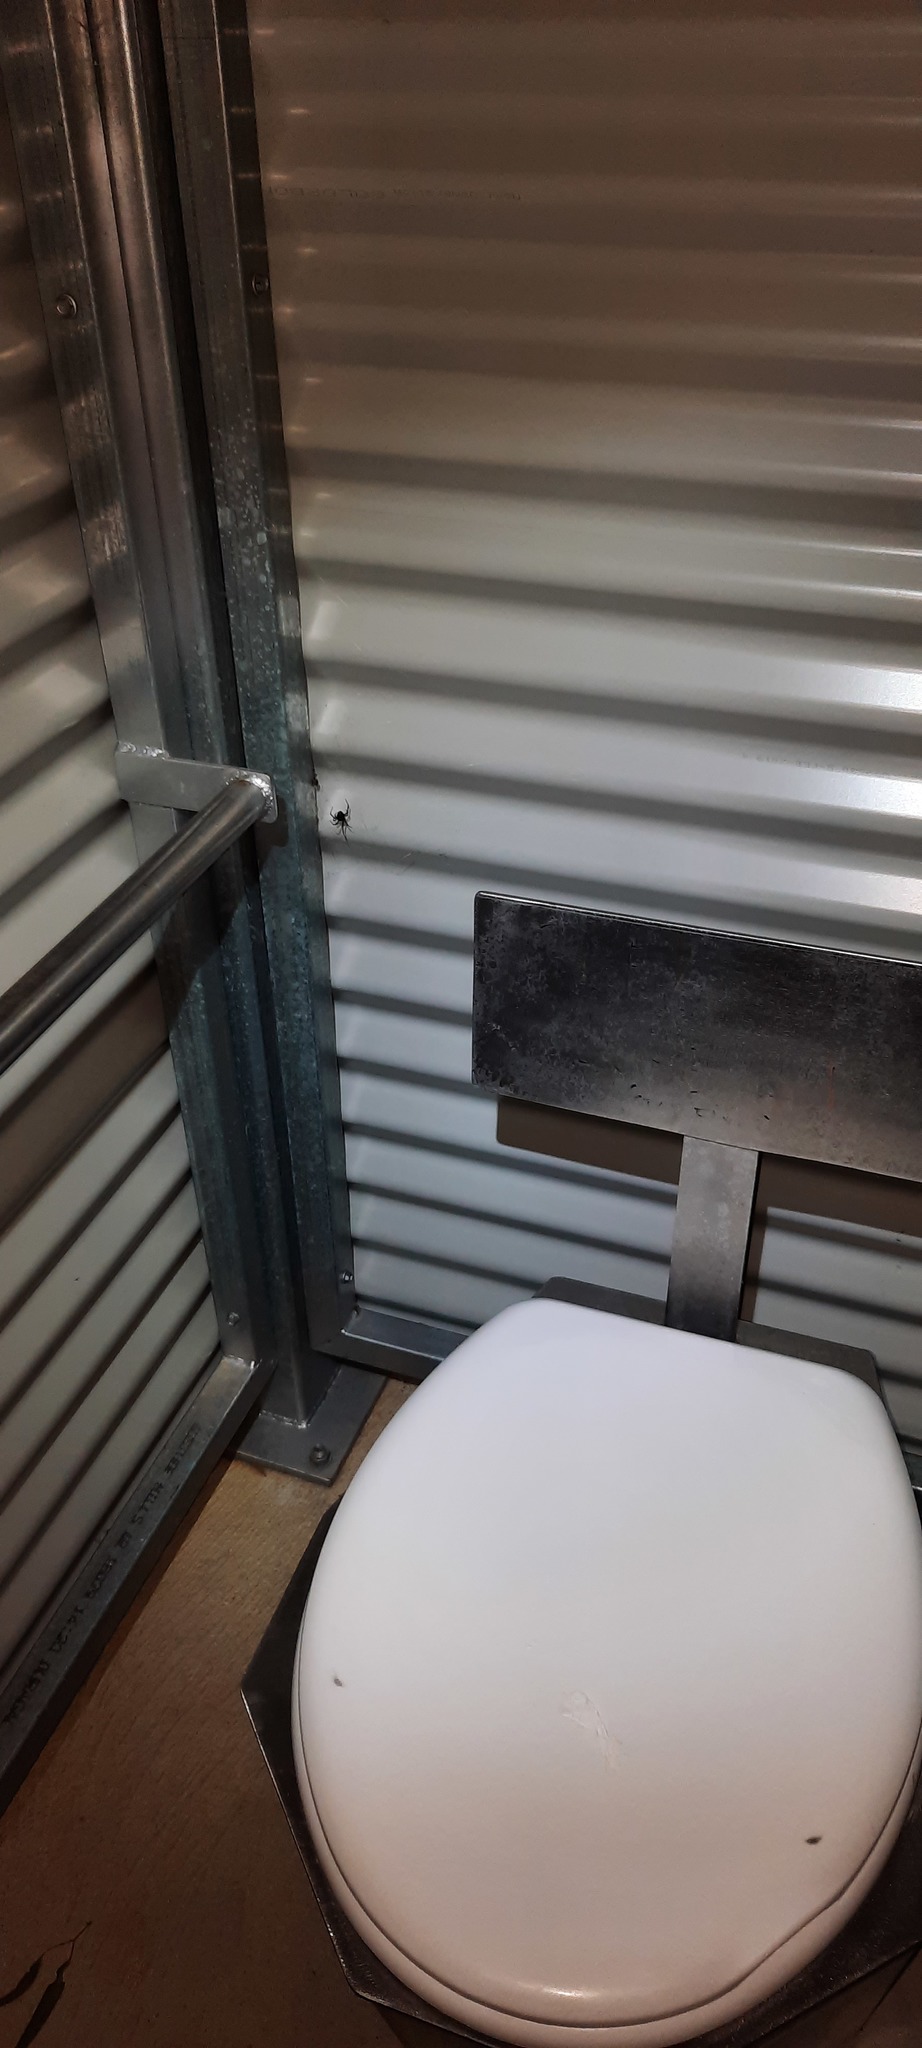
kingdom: Animalia
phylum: Arthropoda
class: Arachnida
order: Araneae
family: Theridiidae
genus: Latrodectus
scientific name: Latrodectus hasselti
